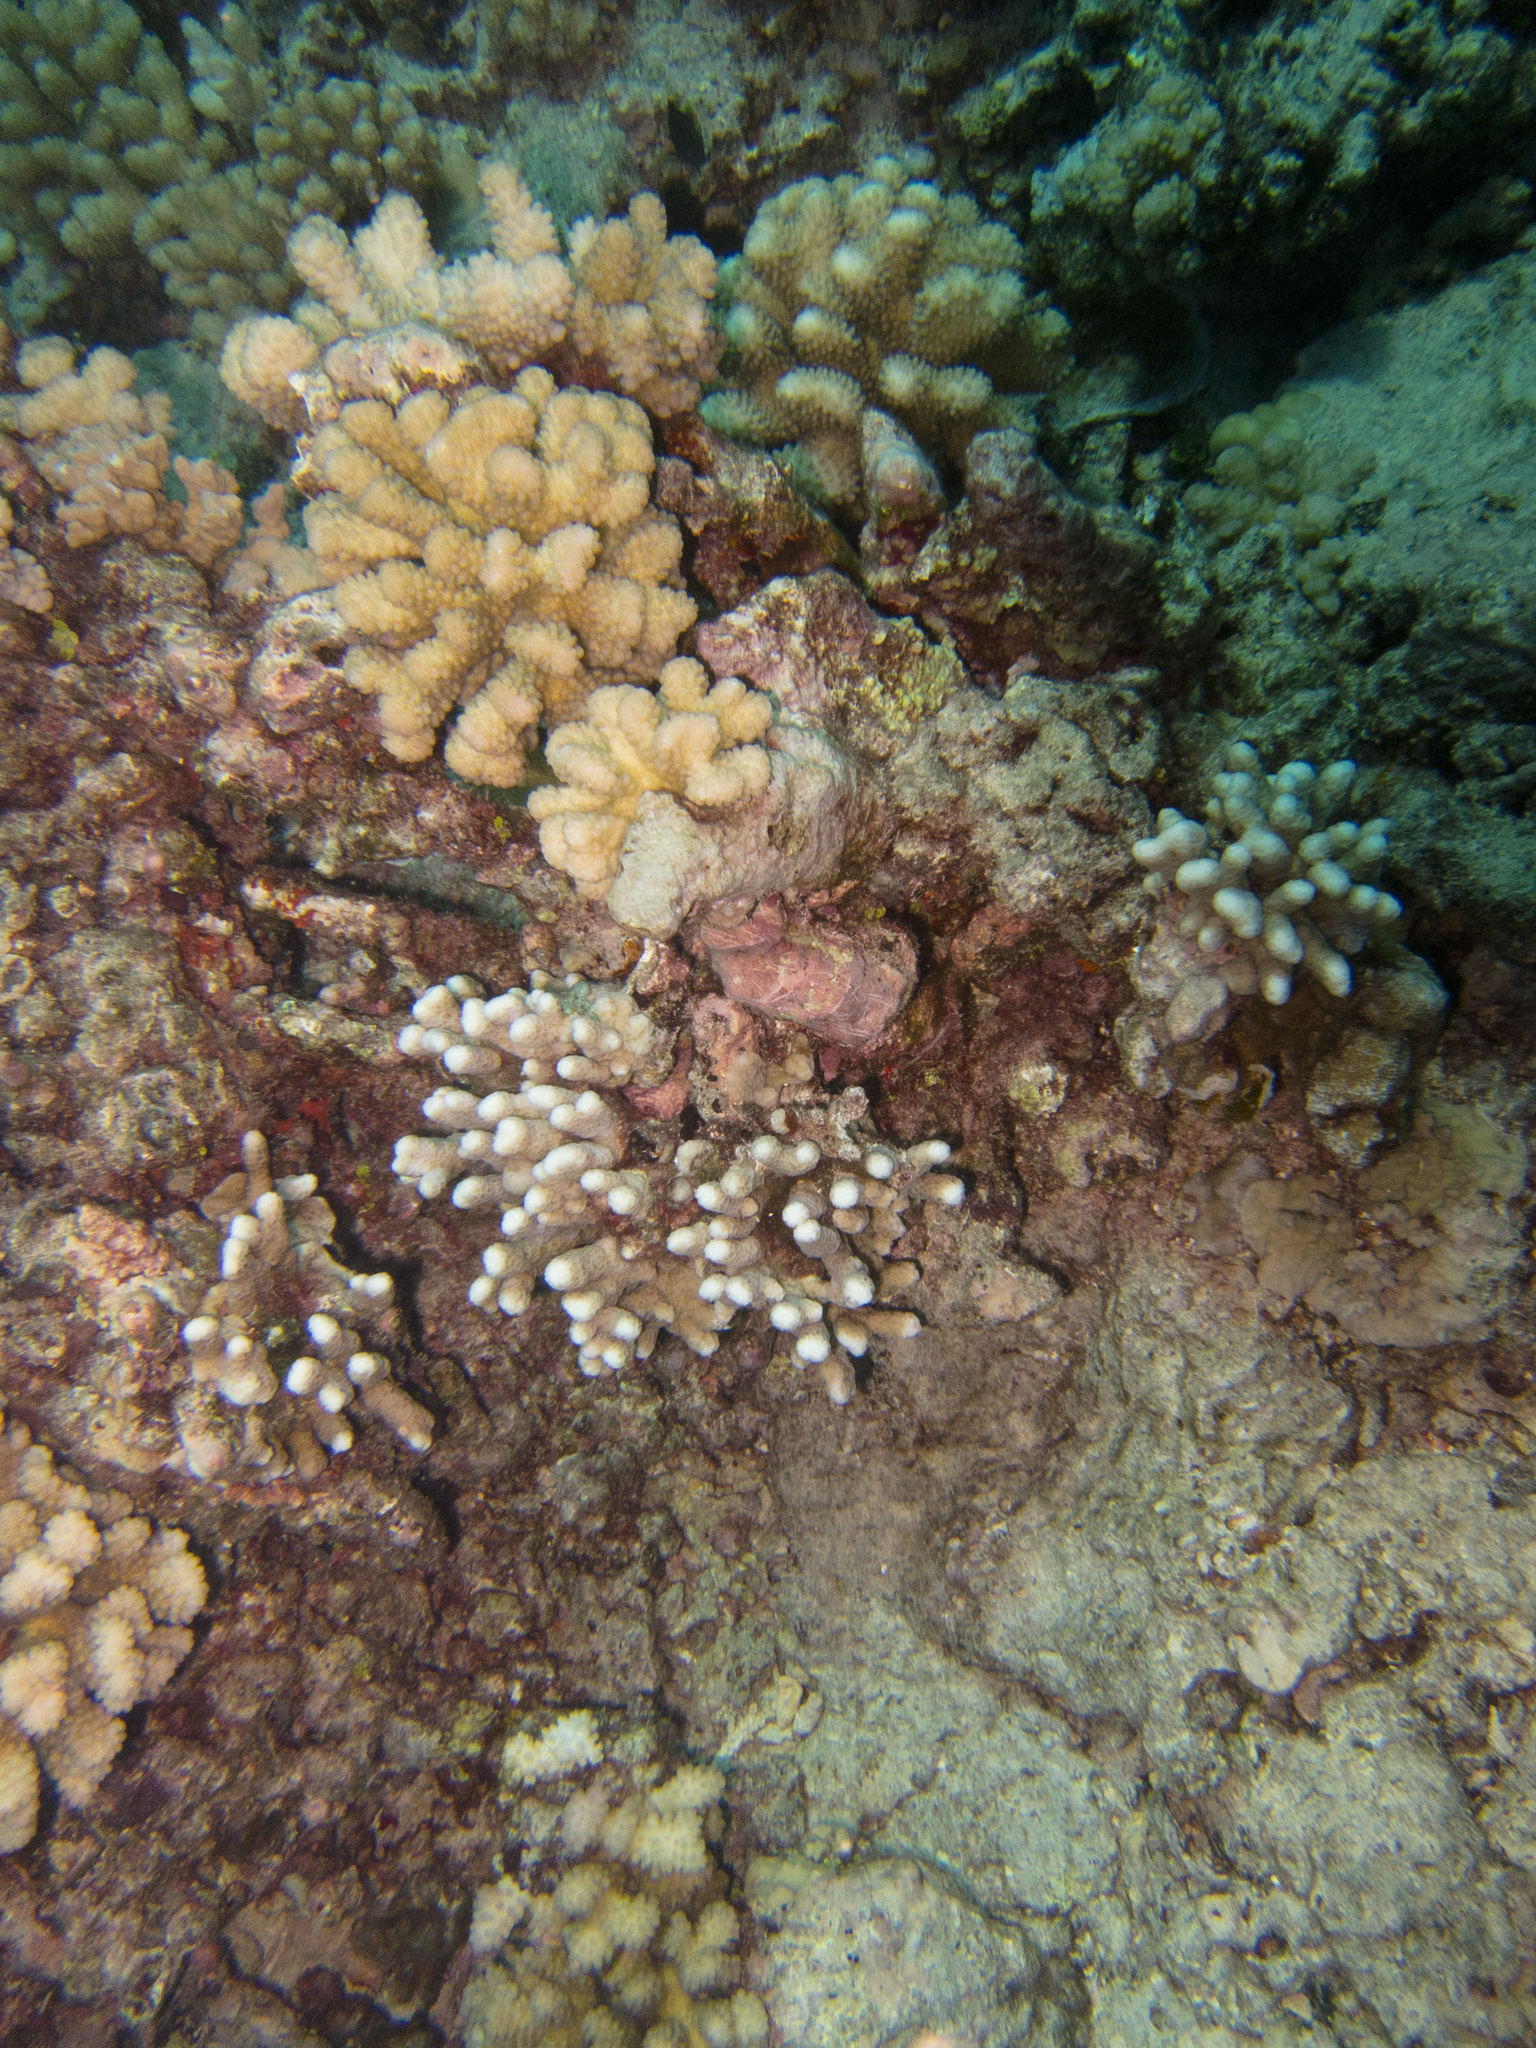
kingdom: Animalia
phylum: Cnidaria
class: Anthozoa
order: Scleractinia
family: Acroporidae
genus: Montipora
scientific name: Montipora angulata
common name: Pore coral
